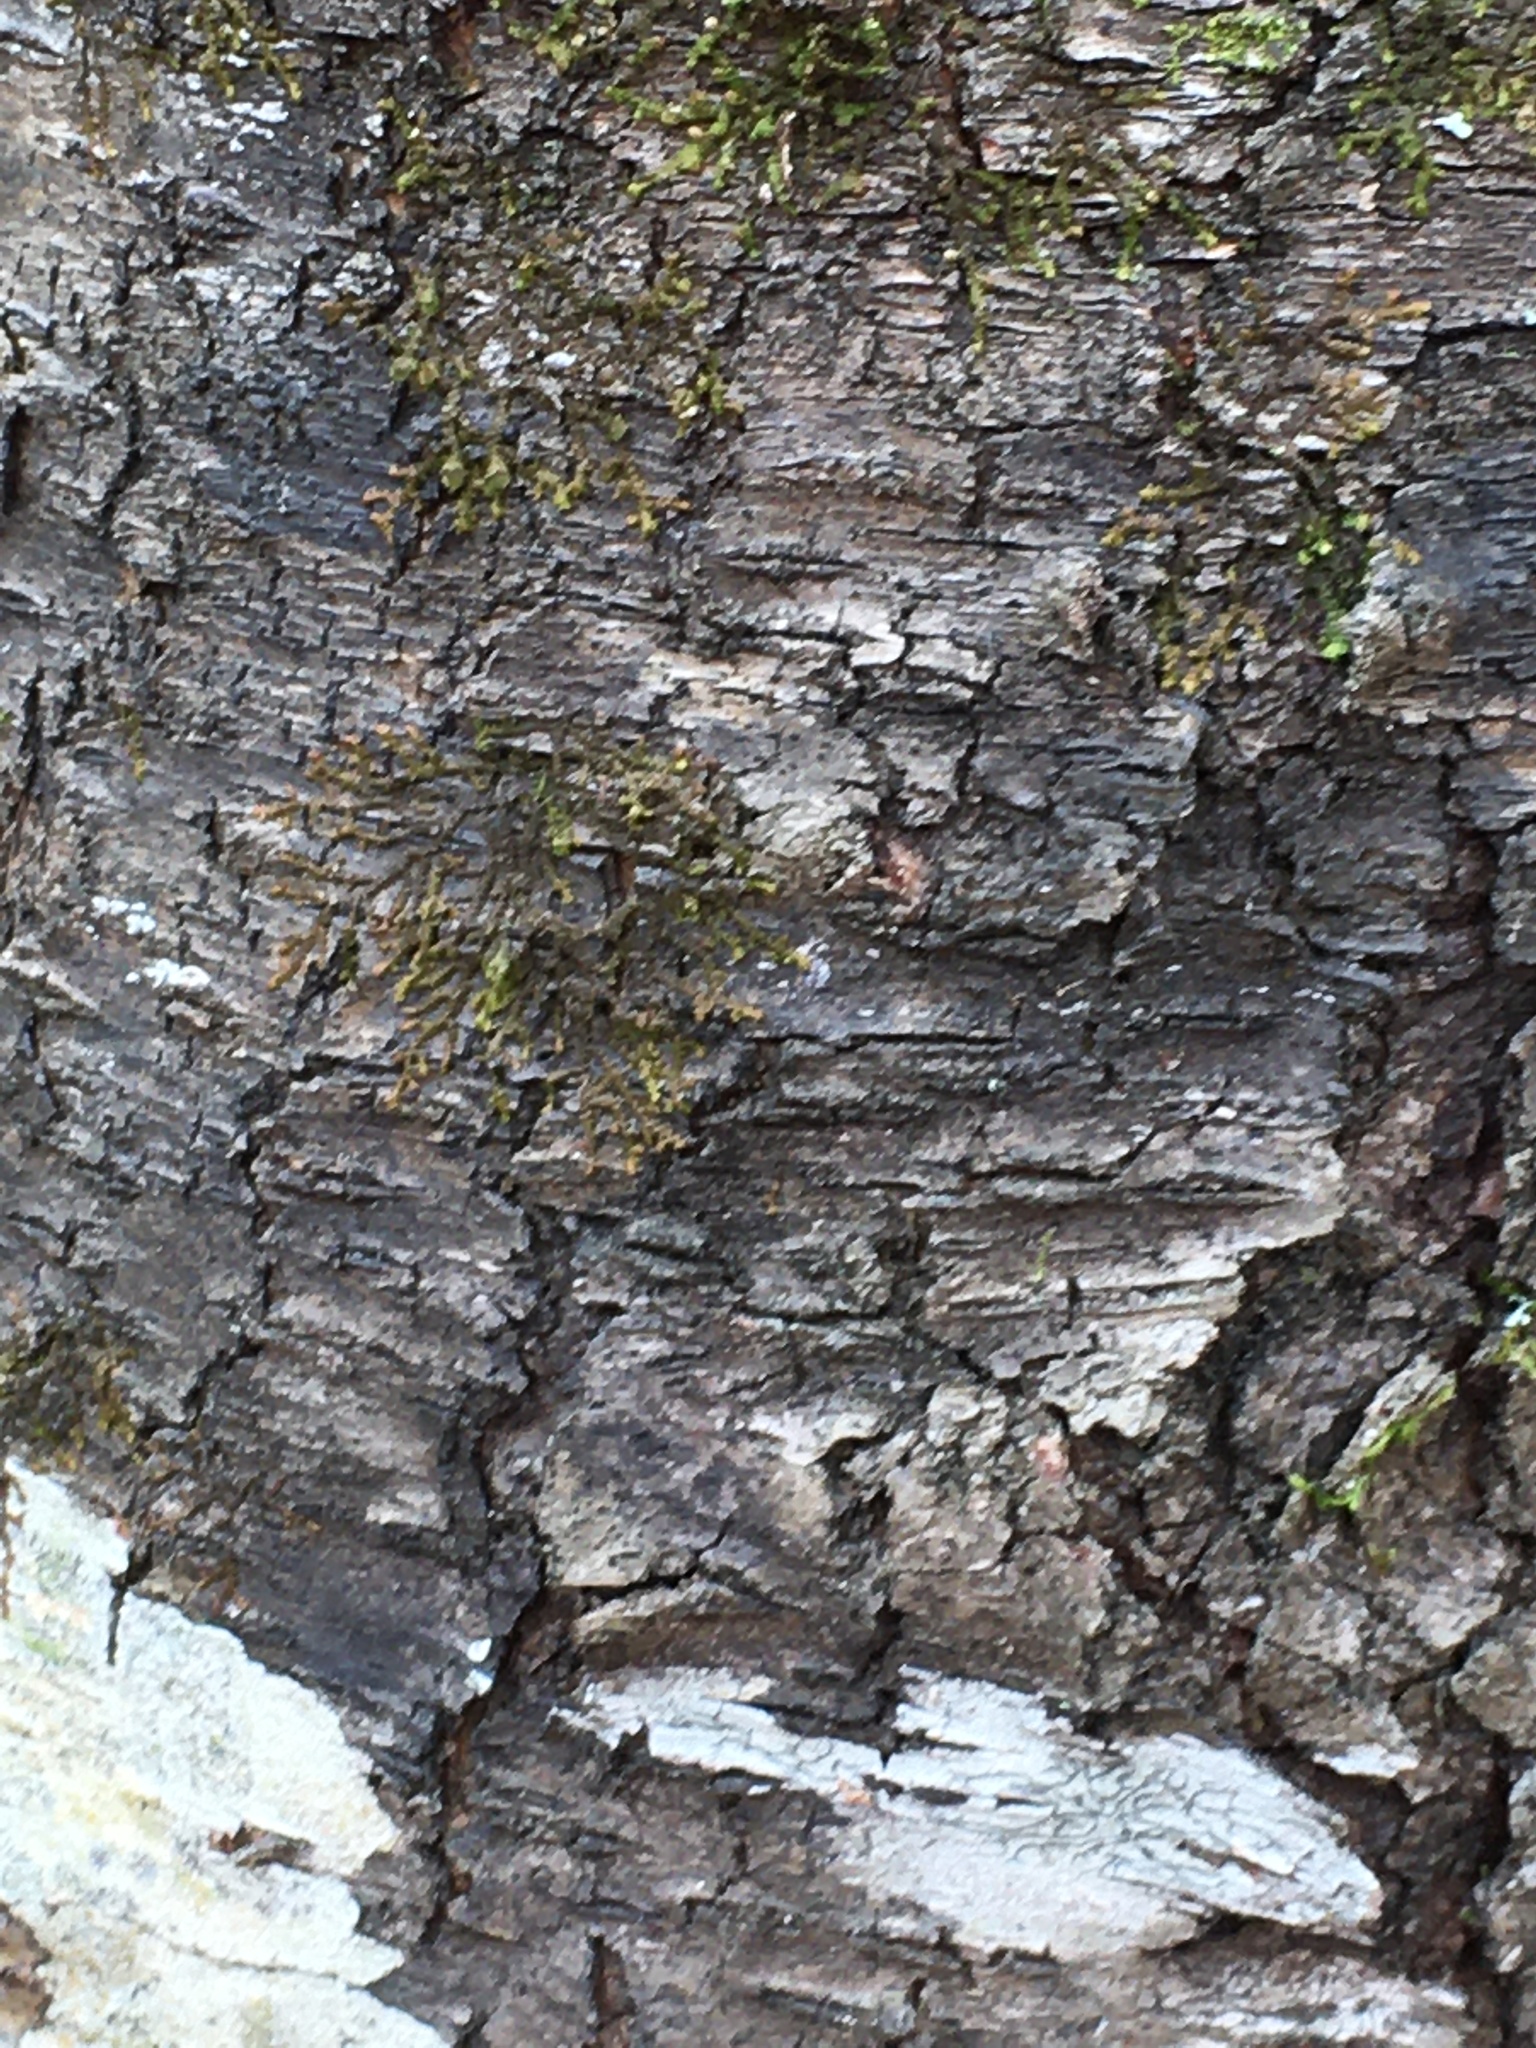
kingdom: Plantae
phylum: Tracheophyta
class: Magnoliopsida
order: Rosales
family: Rosaceae
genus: Prunus
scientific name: Prunus serotina
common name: Black cherry
